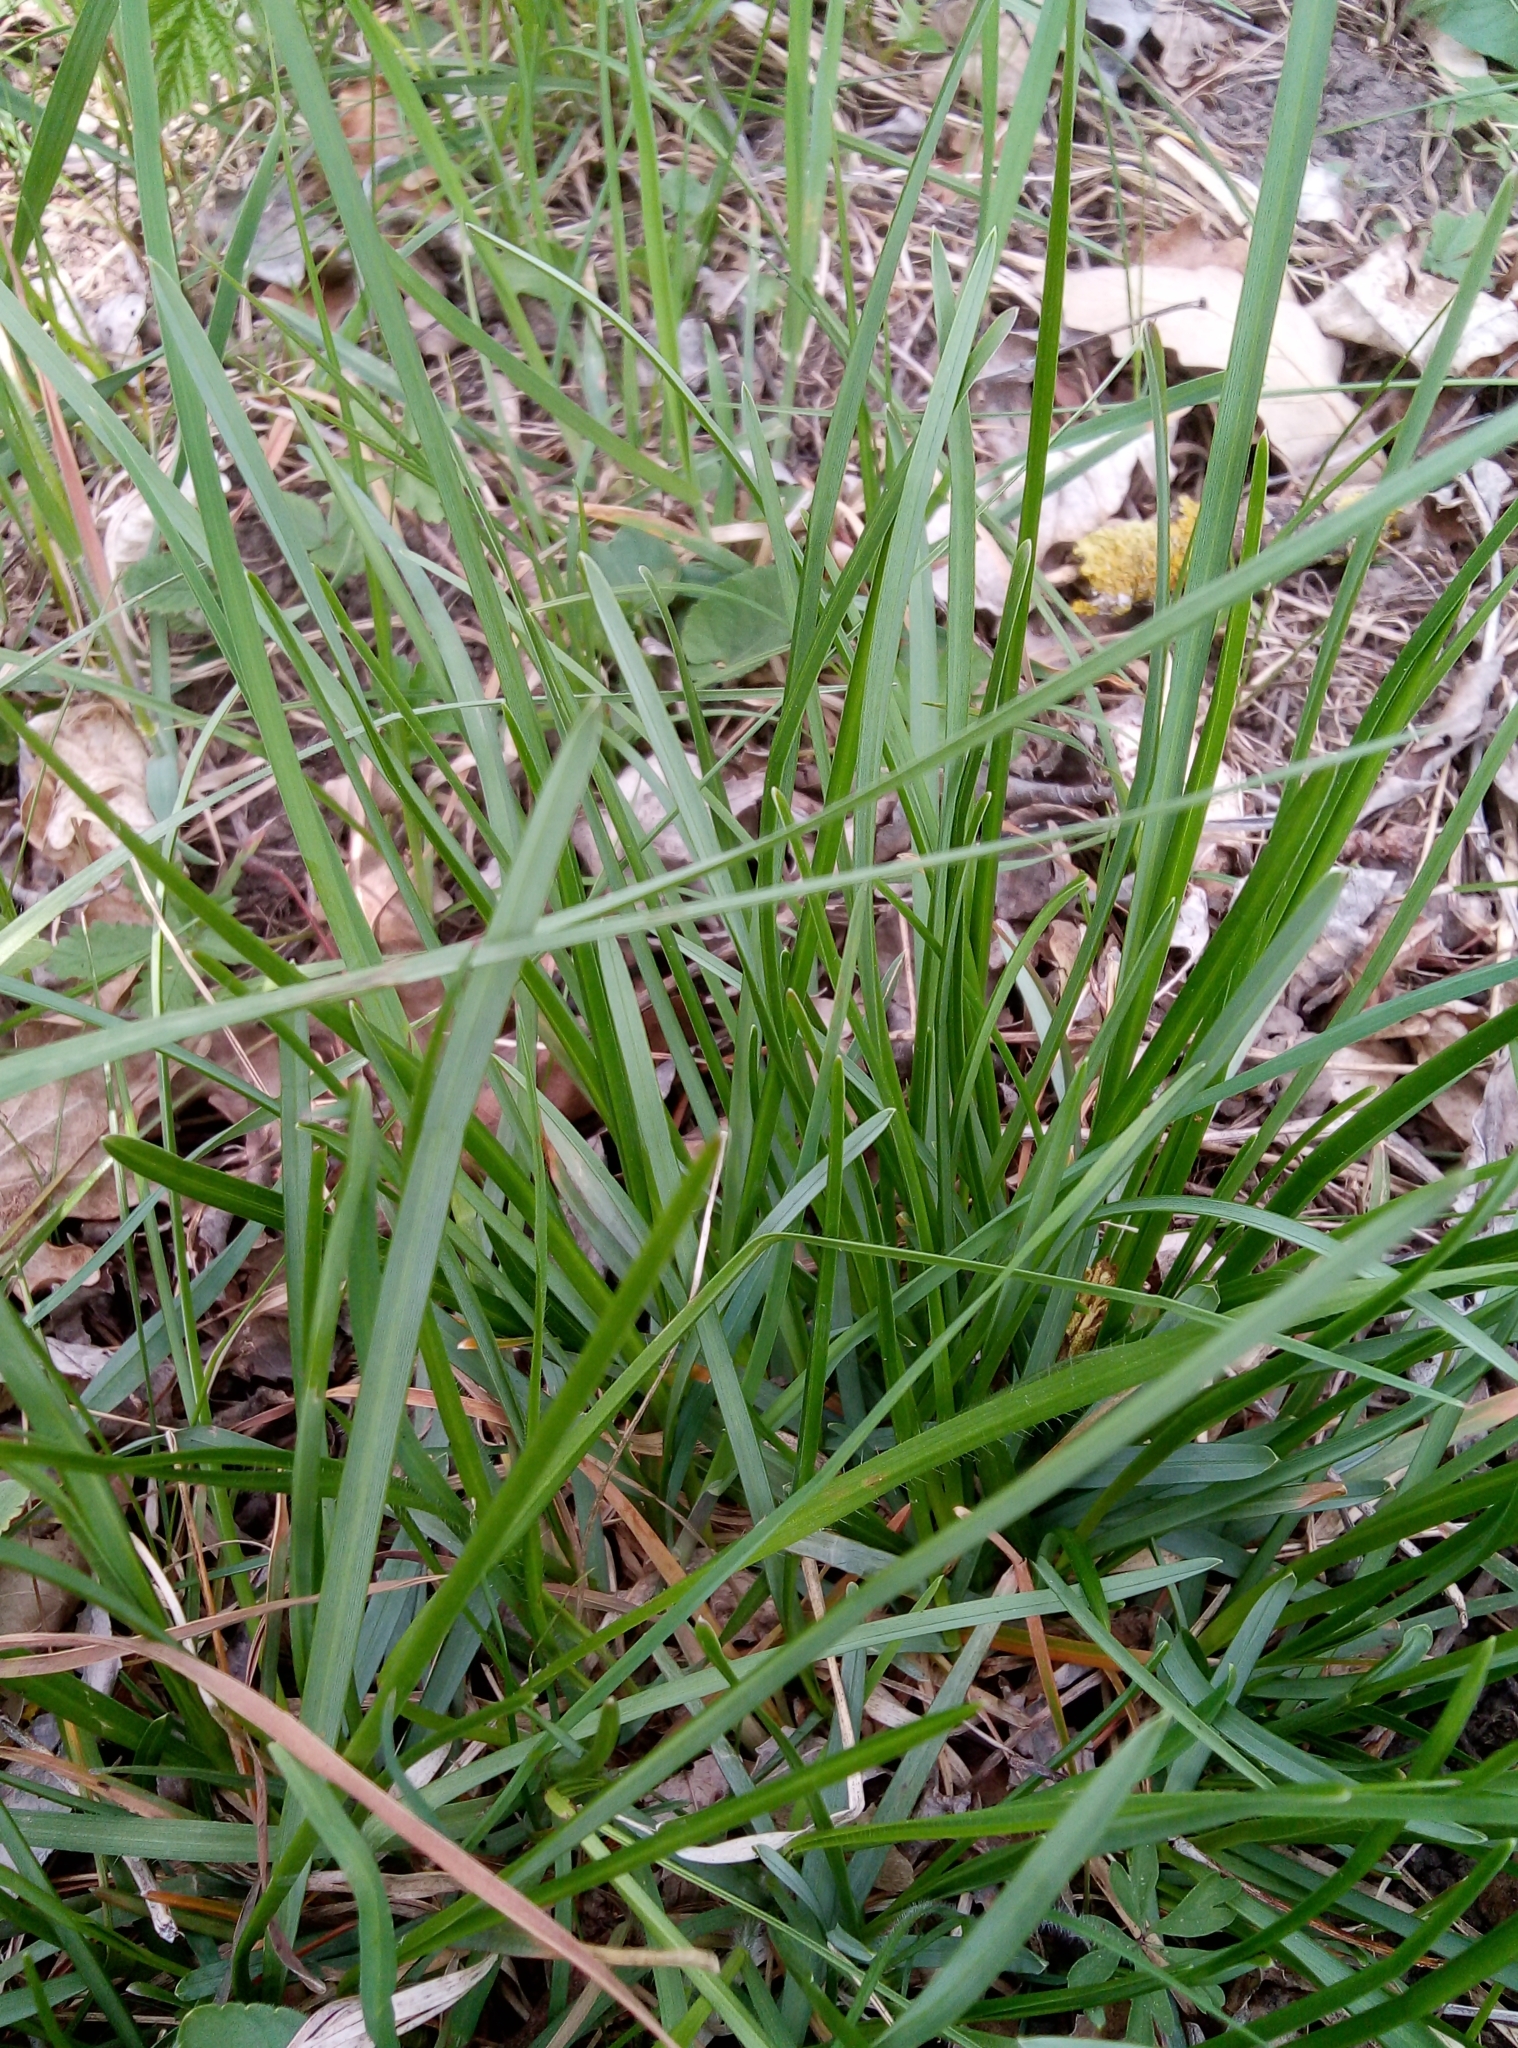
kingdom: Plantae
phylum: Tracheophyta
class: Liliopsida
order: Poales
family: Poaceae
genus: Sesleria
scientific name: Sesleria uliginosa
